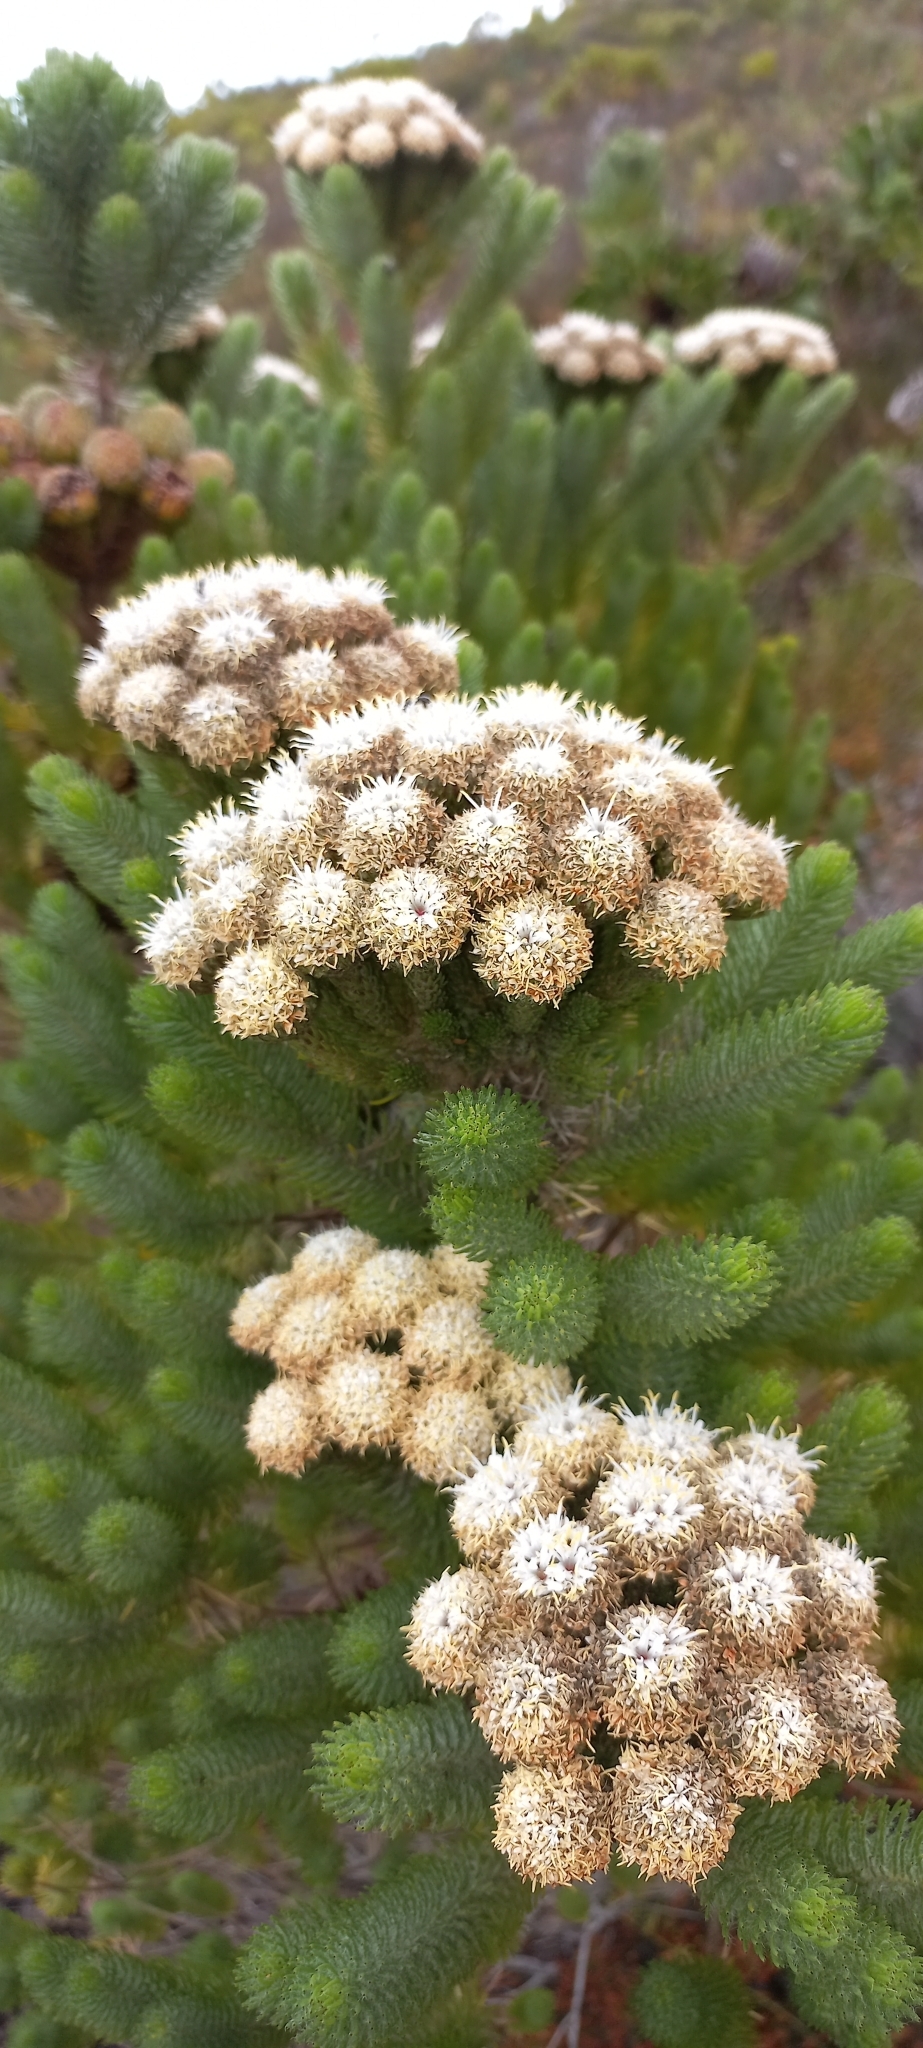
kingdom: Plantae
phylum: Tracheophyta
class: Magnoliopsida
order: Bruniales
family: Bruniaceae
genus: Berzelia
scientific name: Berzelia albiflora
